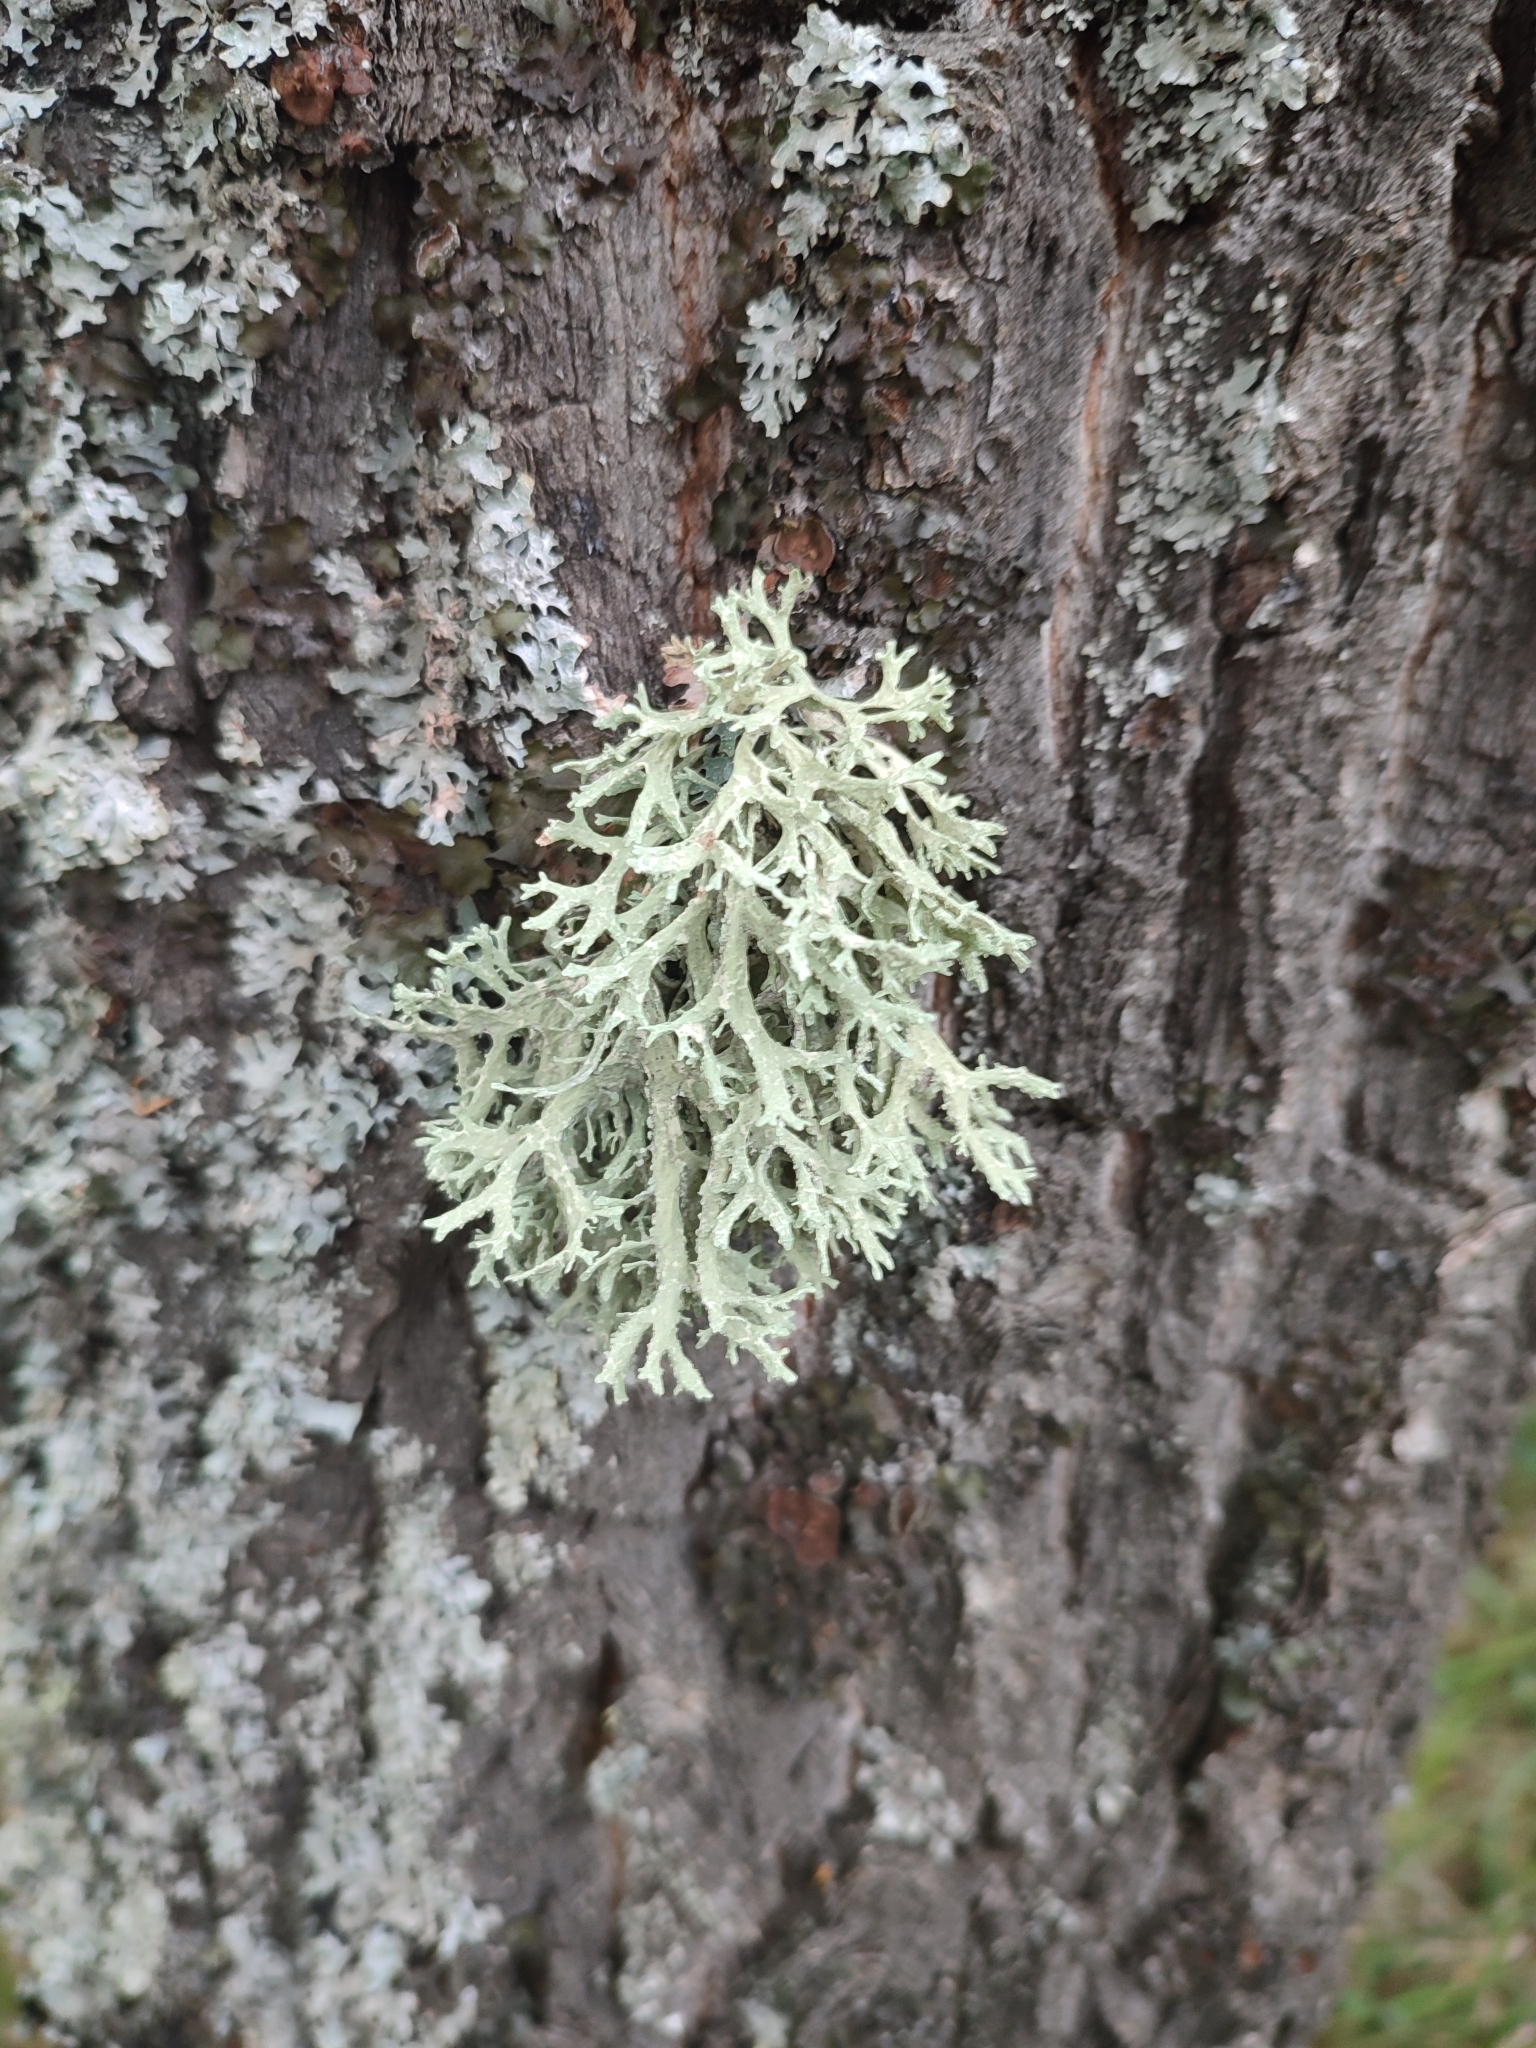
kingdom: Fungi
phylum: Ascomycota
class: Lecanoromycetes
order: Lecanorales
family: Parmeliaceae
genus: Evernia
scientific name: Evernia prunastri
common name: Oak moss
